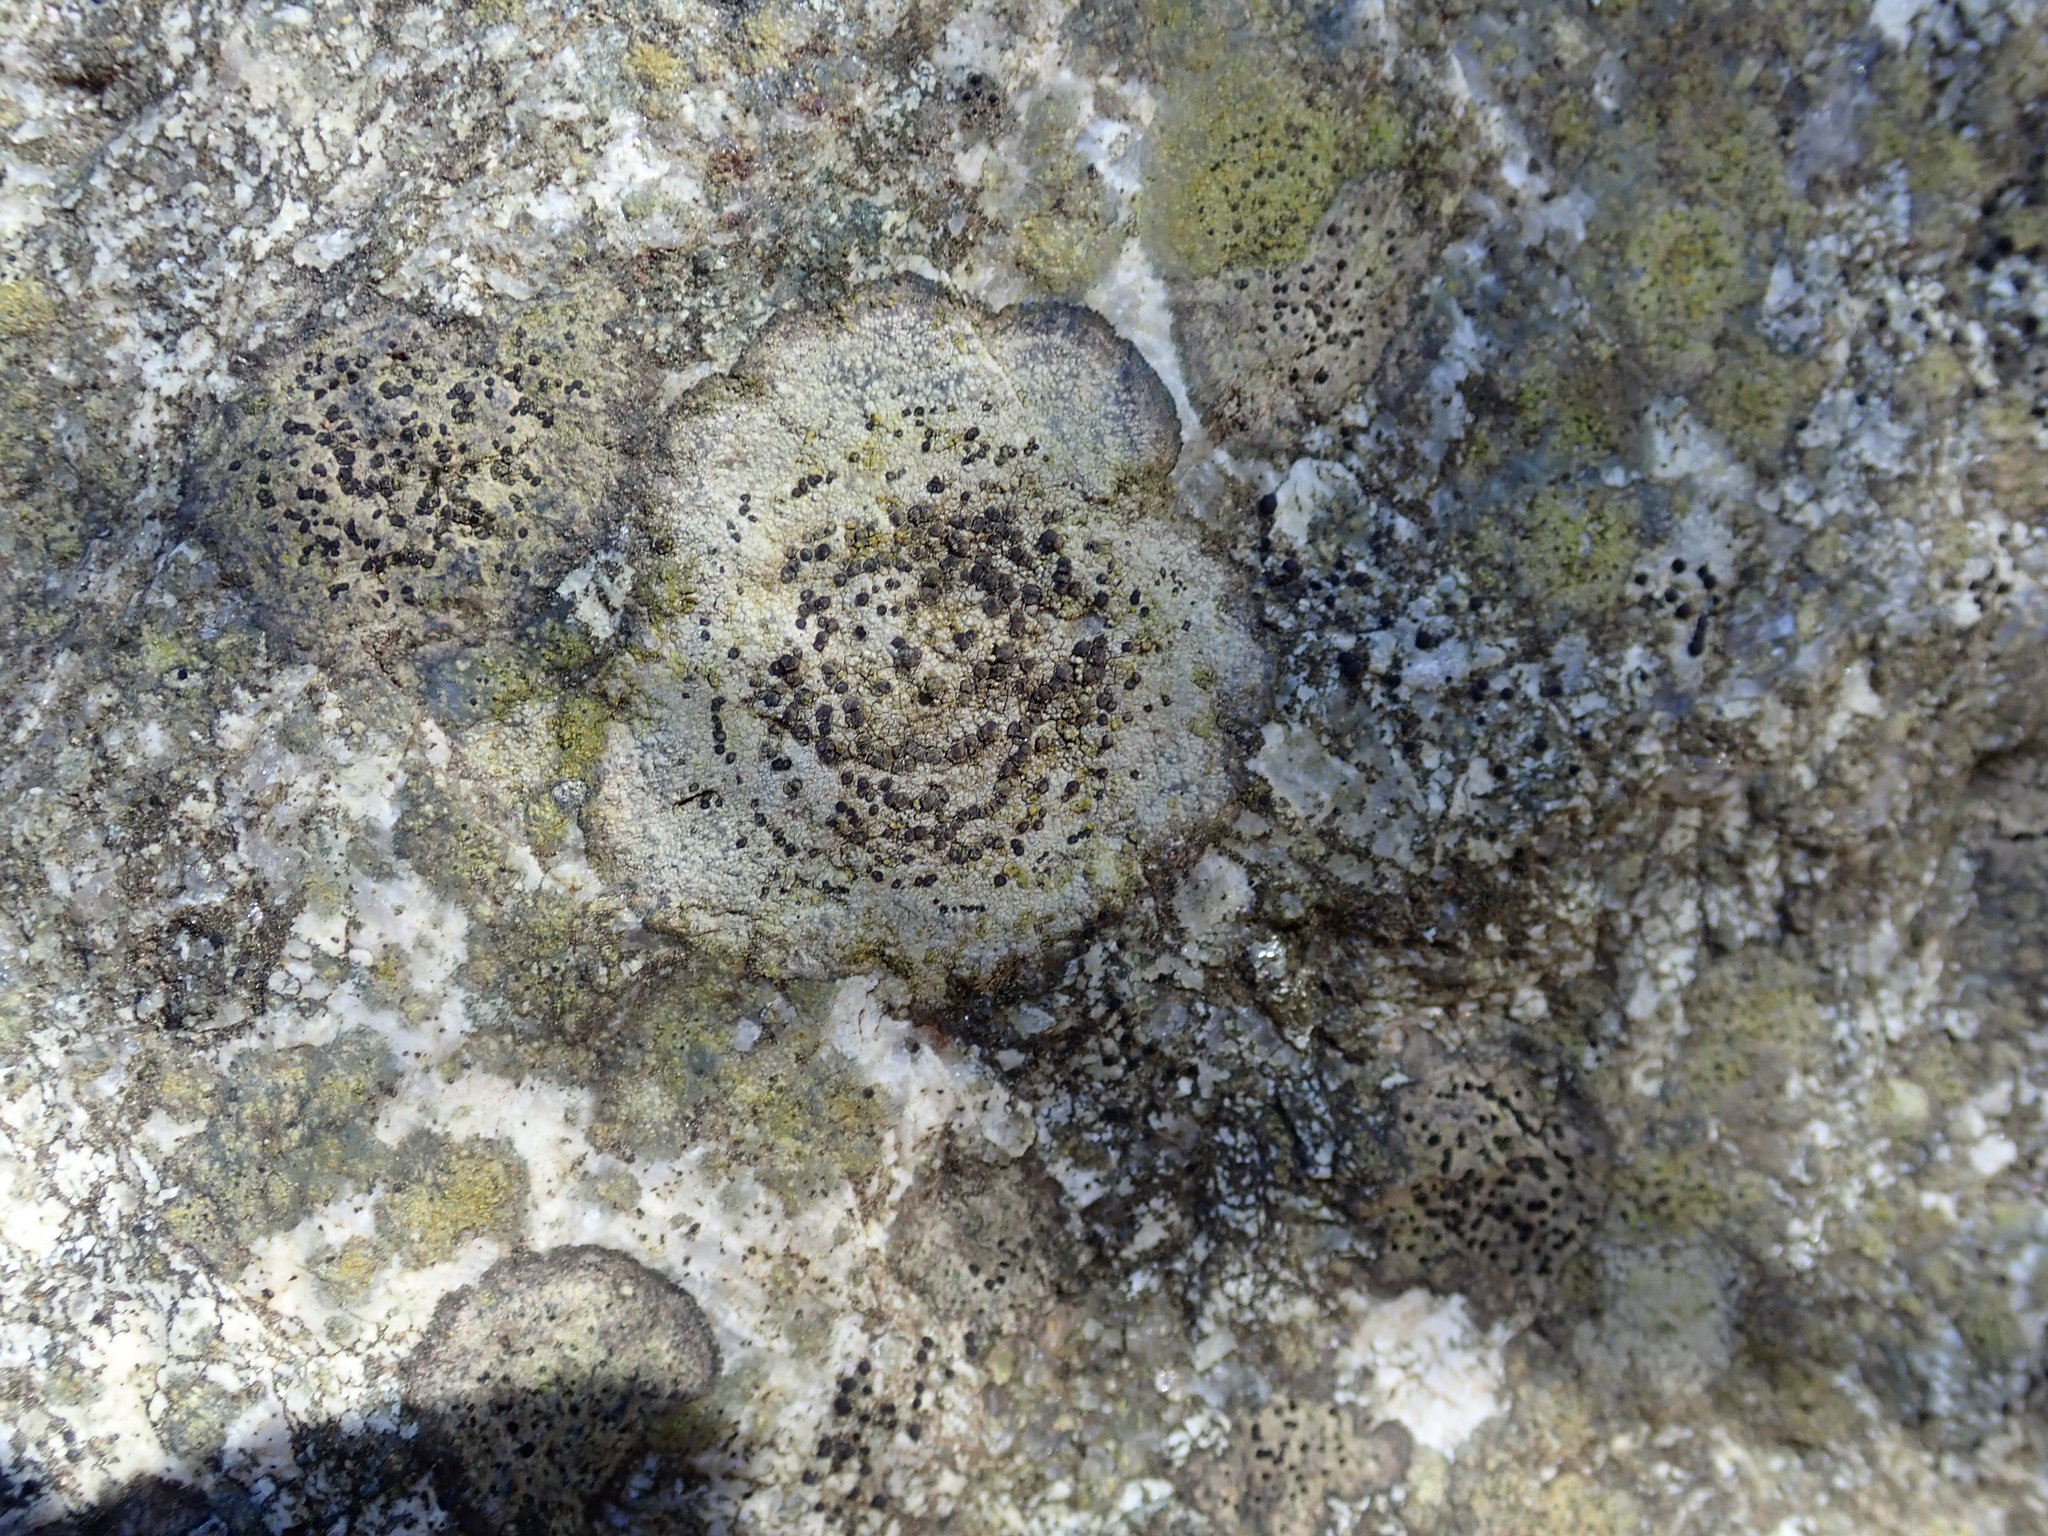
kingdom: Fungi
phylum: Ascomycota
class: Lecanoromycetes
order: Lecideales
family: Lecideaceae
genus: Porpidia
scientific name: Porpidia crustulata
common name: Concentric boulder lichen
